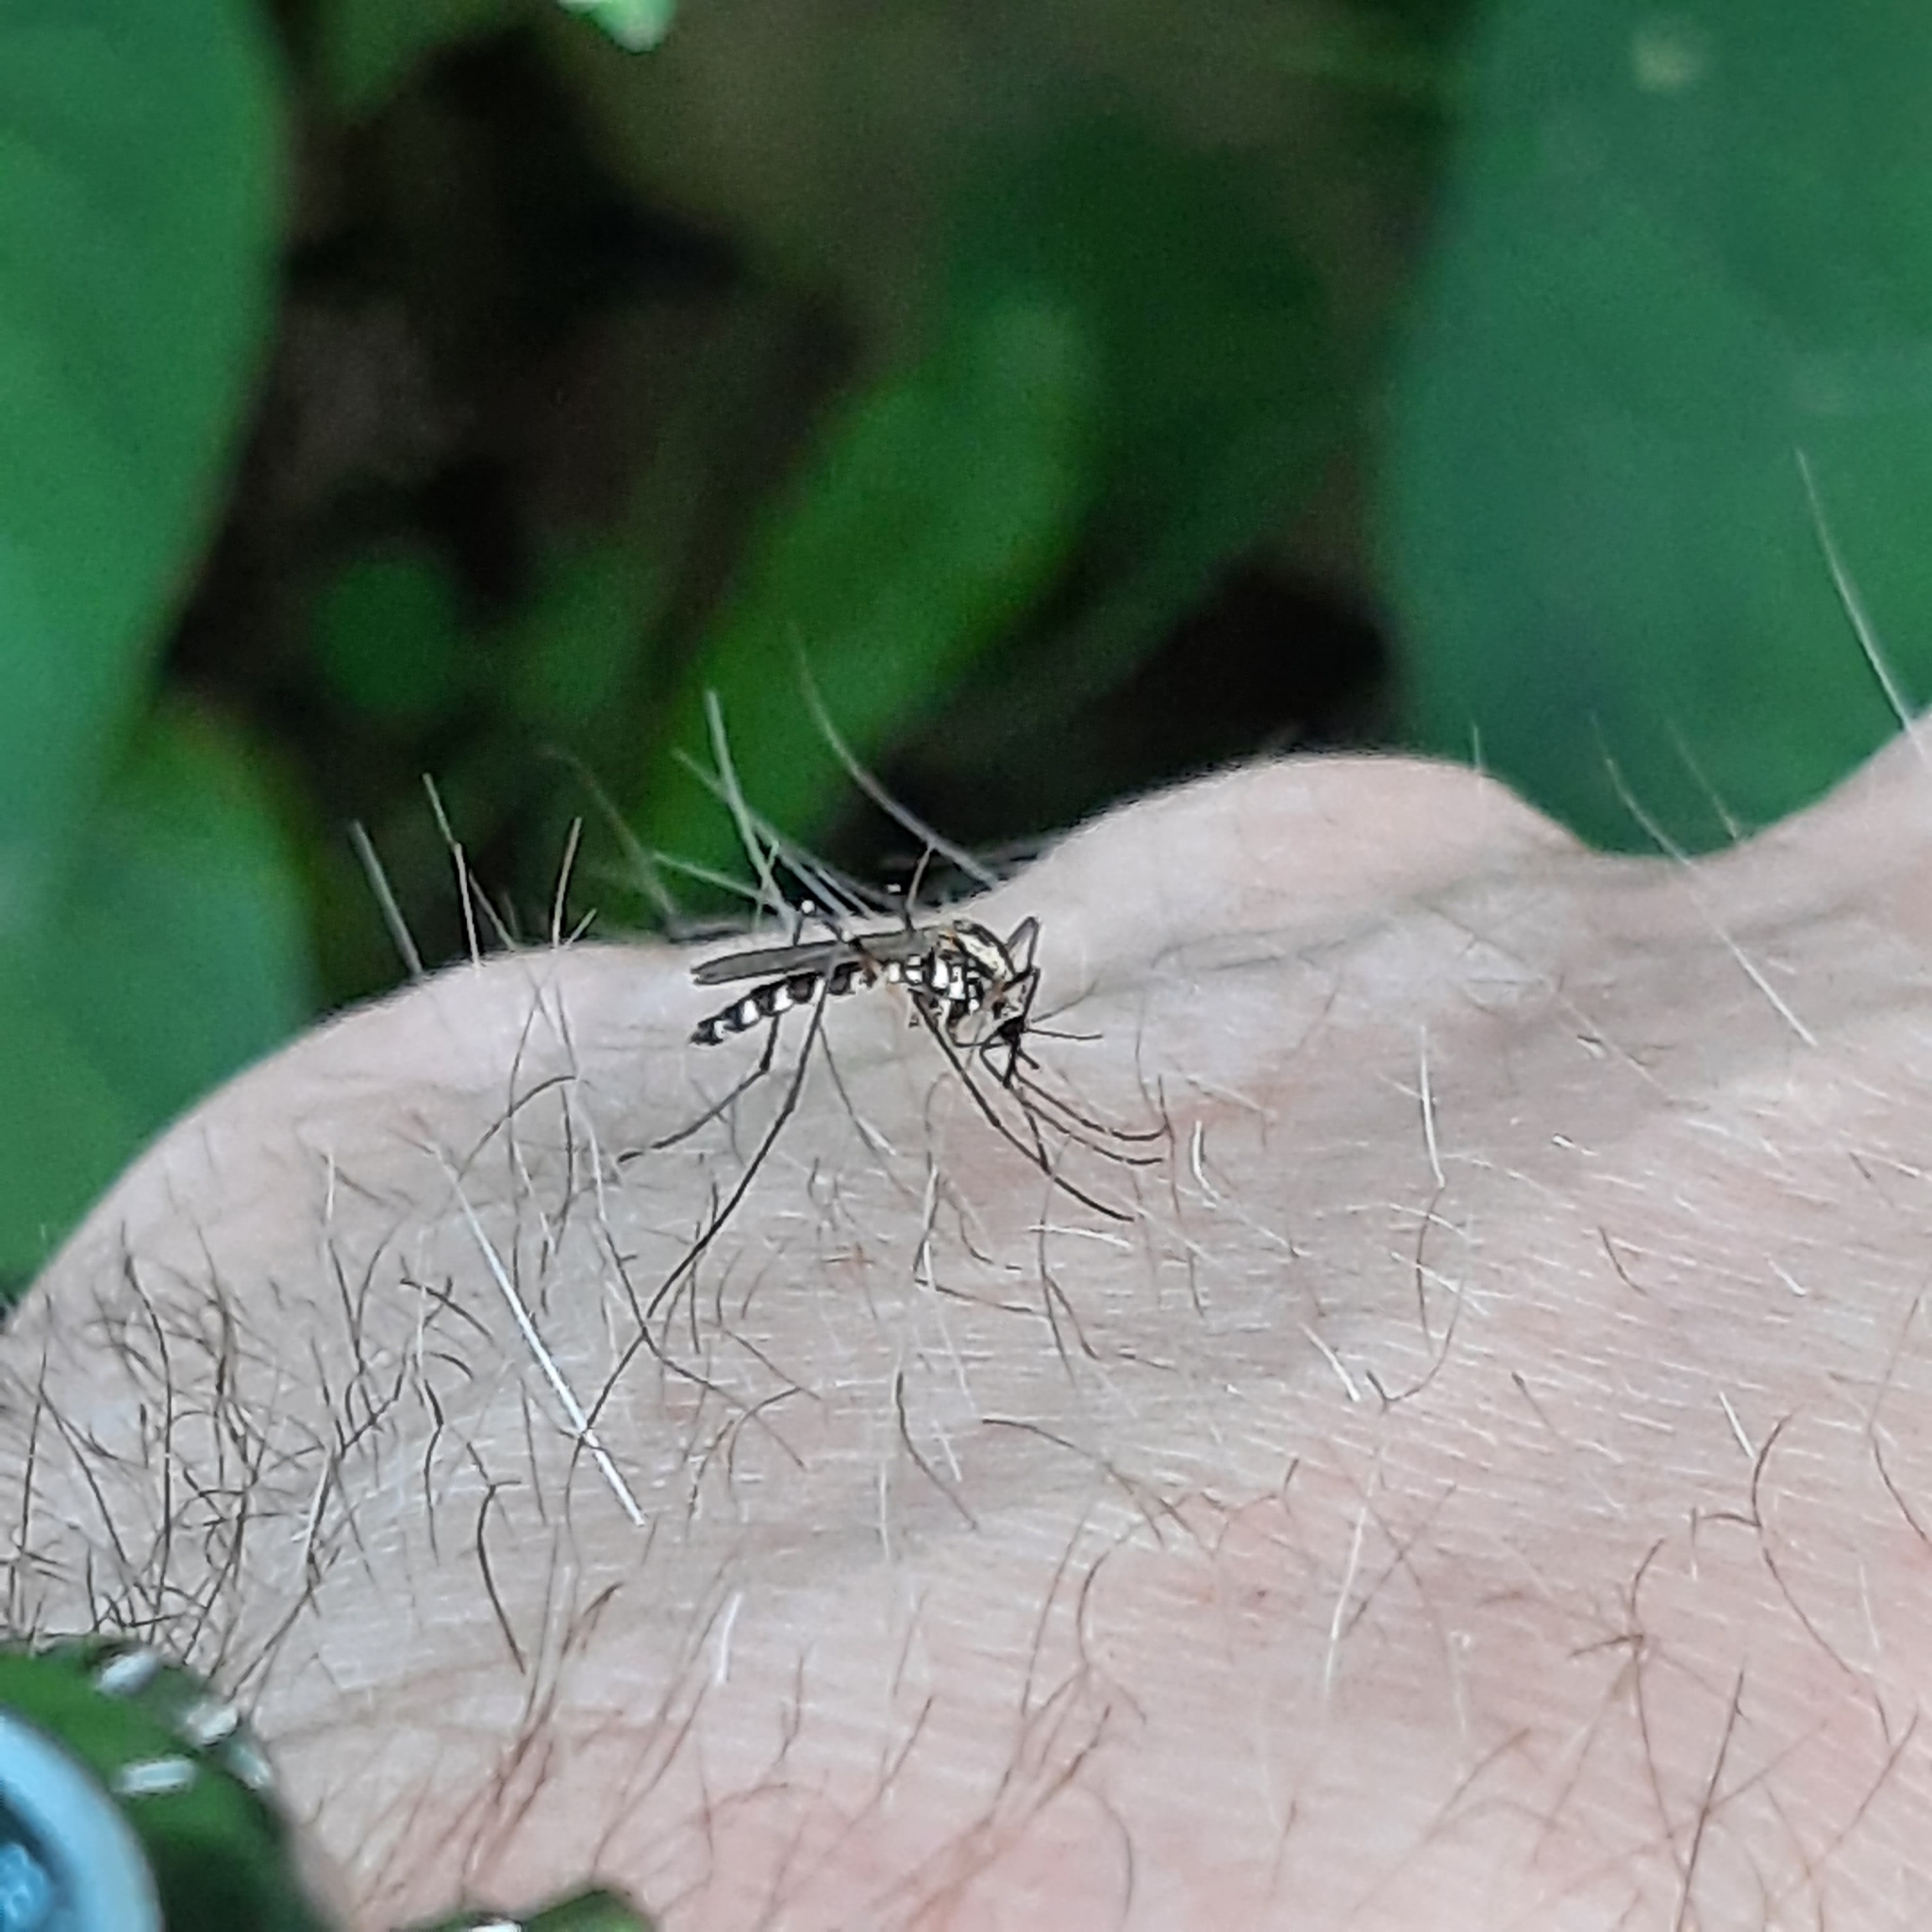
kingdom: Animalia
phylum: Arthropoda
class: Insecta
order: Diptera
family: Culicidae
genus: Aedes
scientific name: Aedes geniculatus
